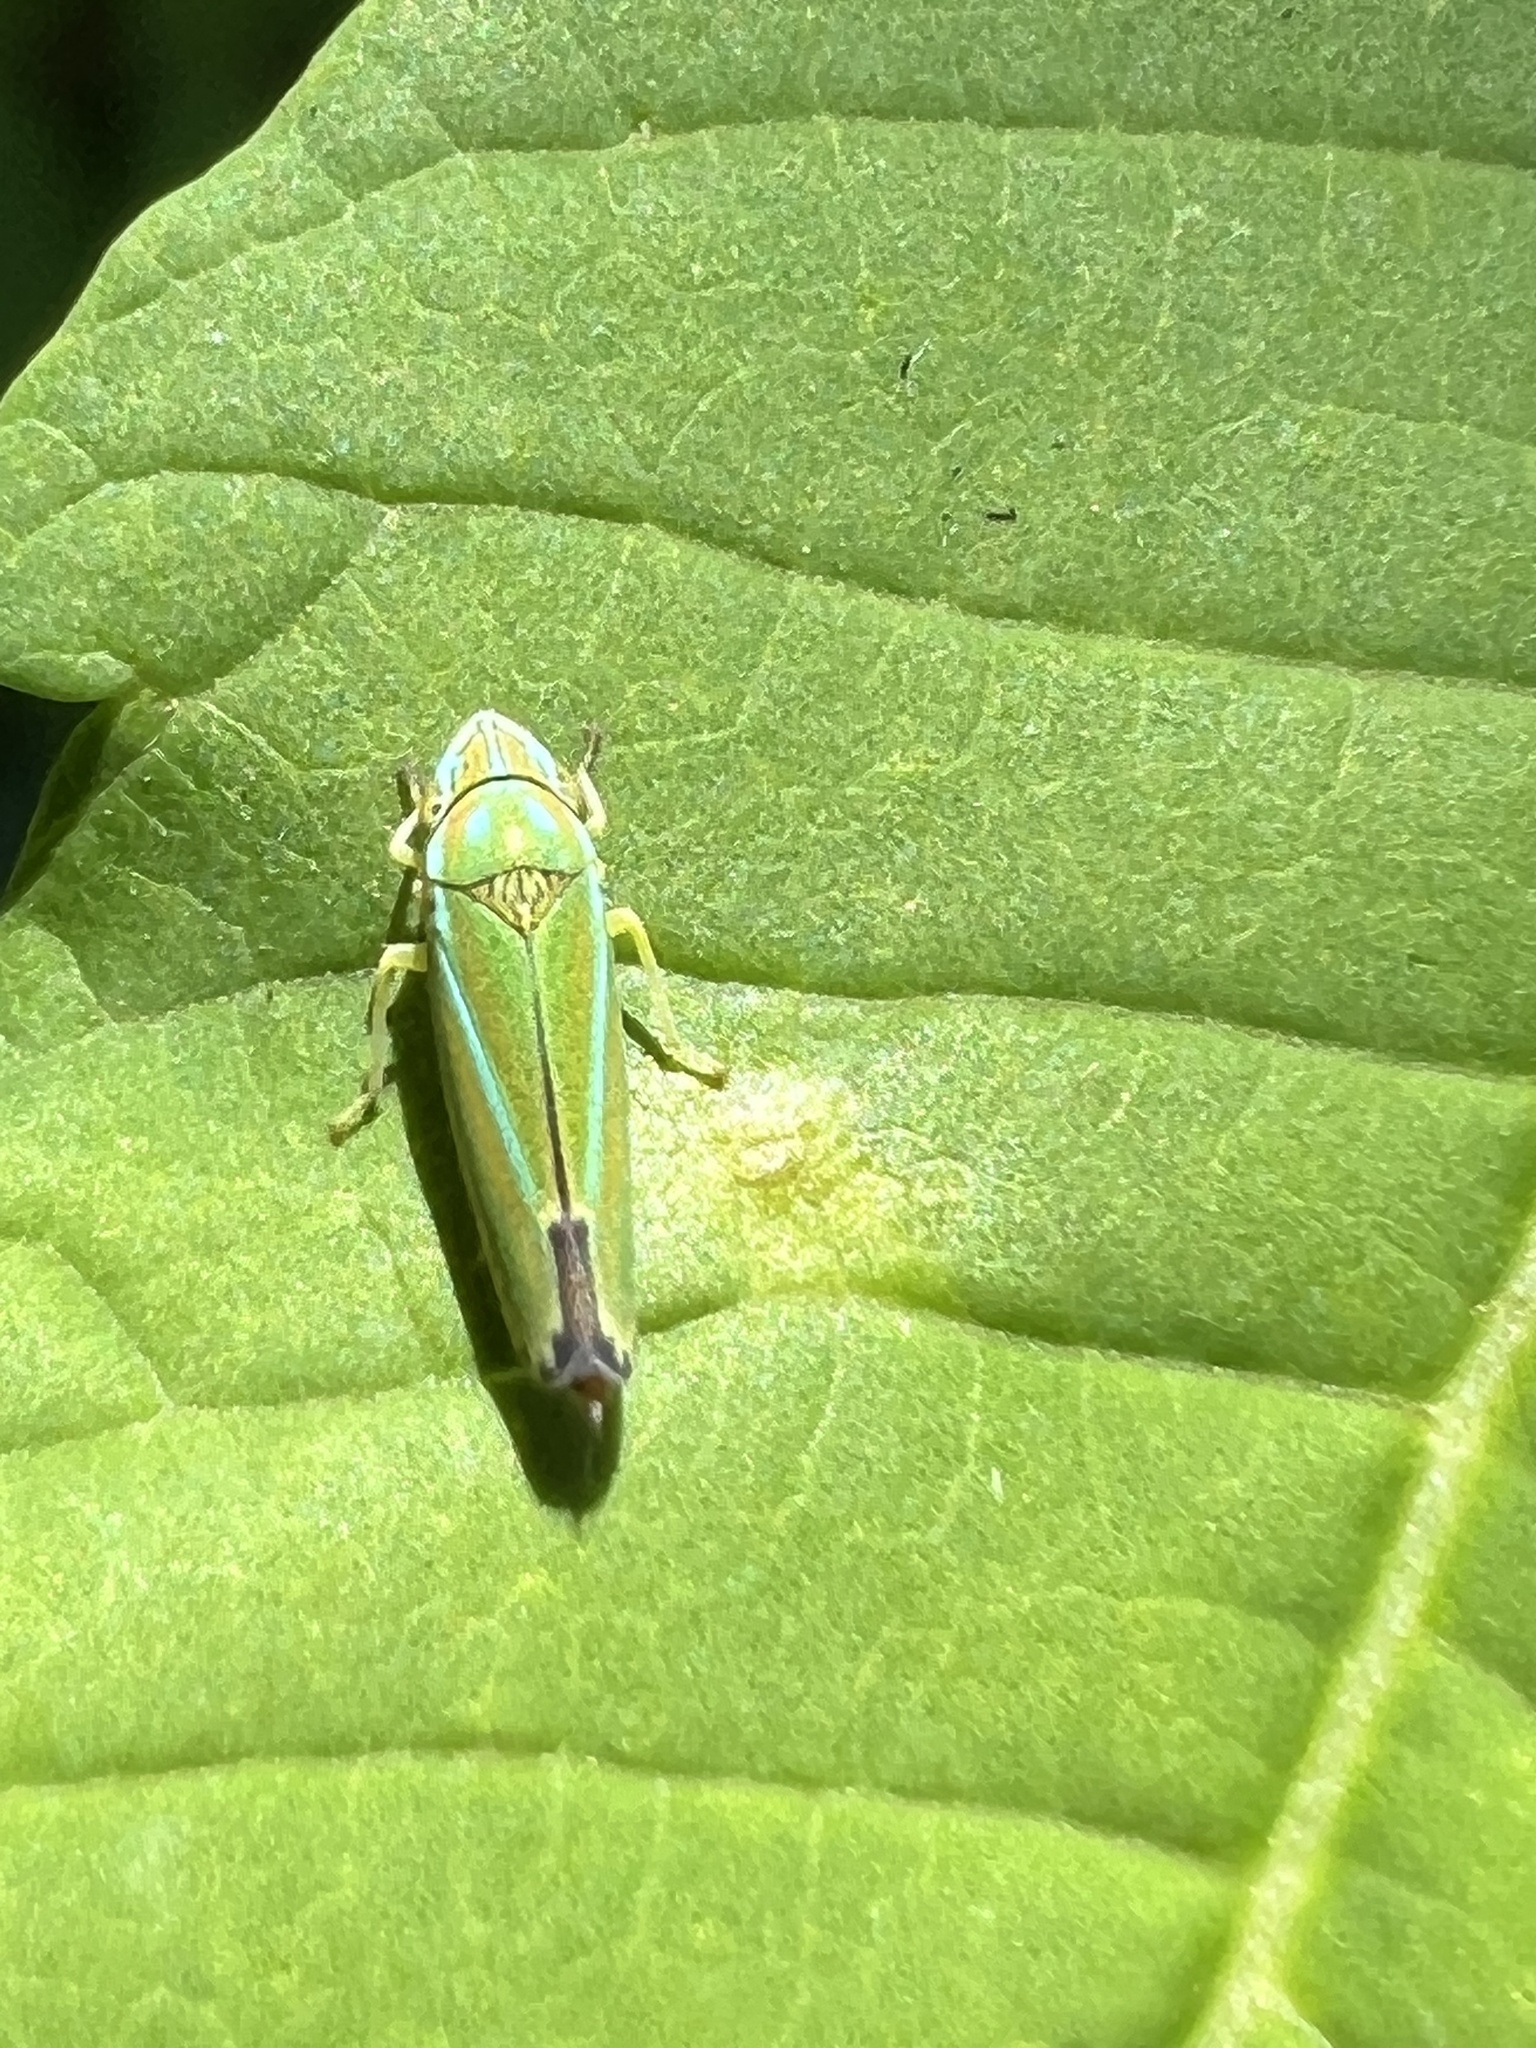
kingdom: Animalia
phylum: Arthropoda
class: Insecta
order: Hemiptera
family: Cicadellidae
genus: Graphocephala
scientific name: Graphocephala versuta
